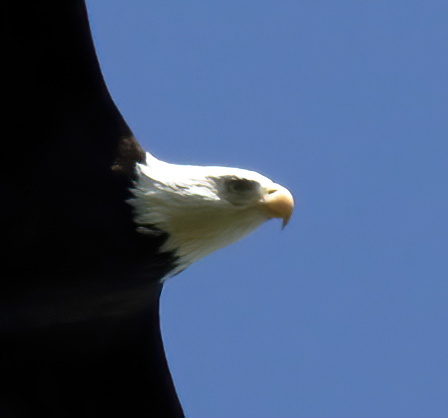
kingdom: Animalia
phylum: Chordata
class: Aves
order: Accipitriformes
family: Accipitridae
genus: Haliaeetus
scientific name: Haliaeetus leucocephalus
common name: Bald eagle
